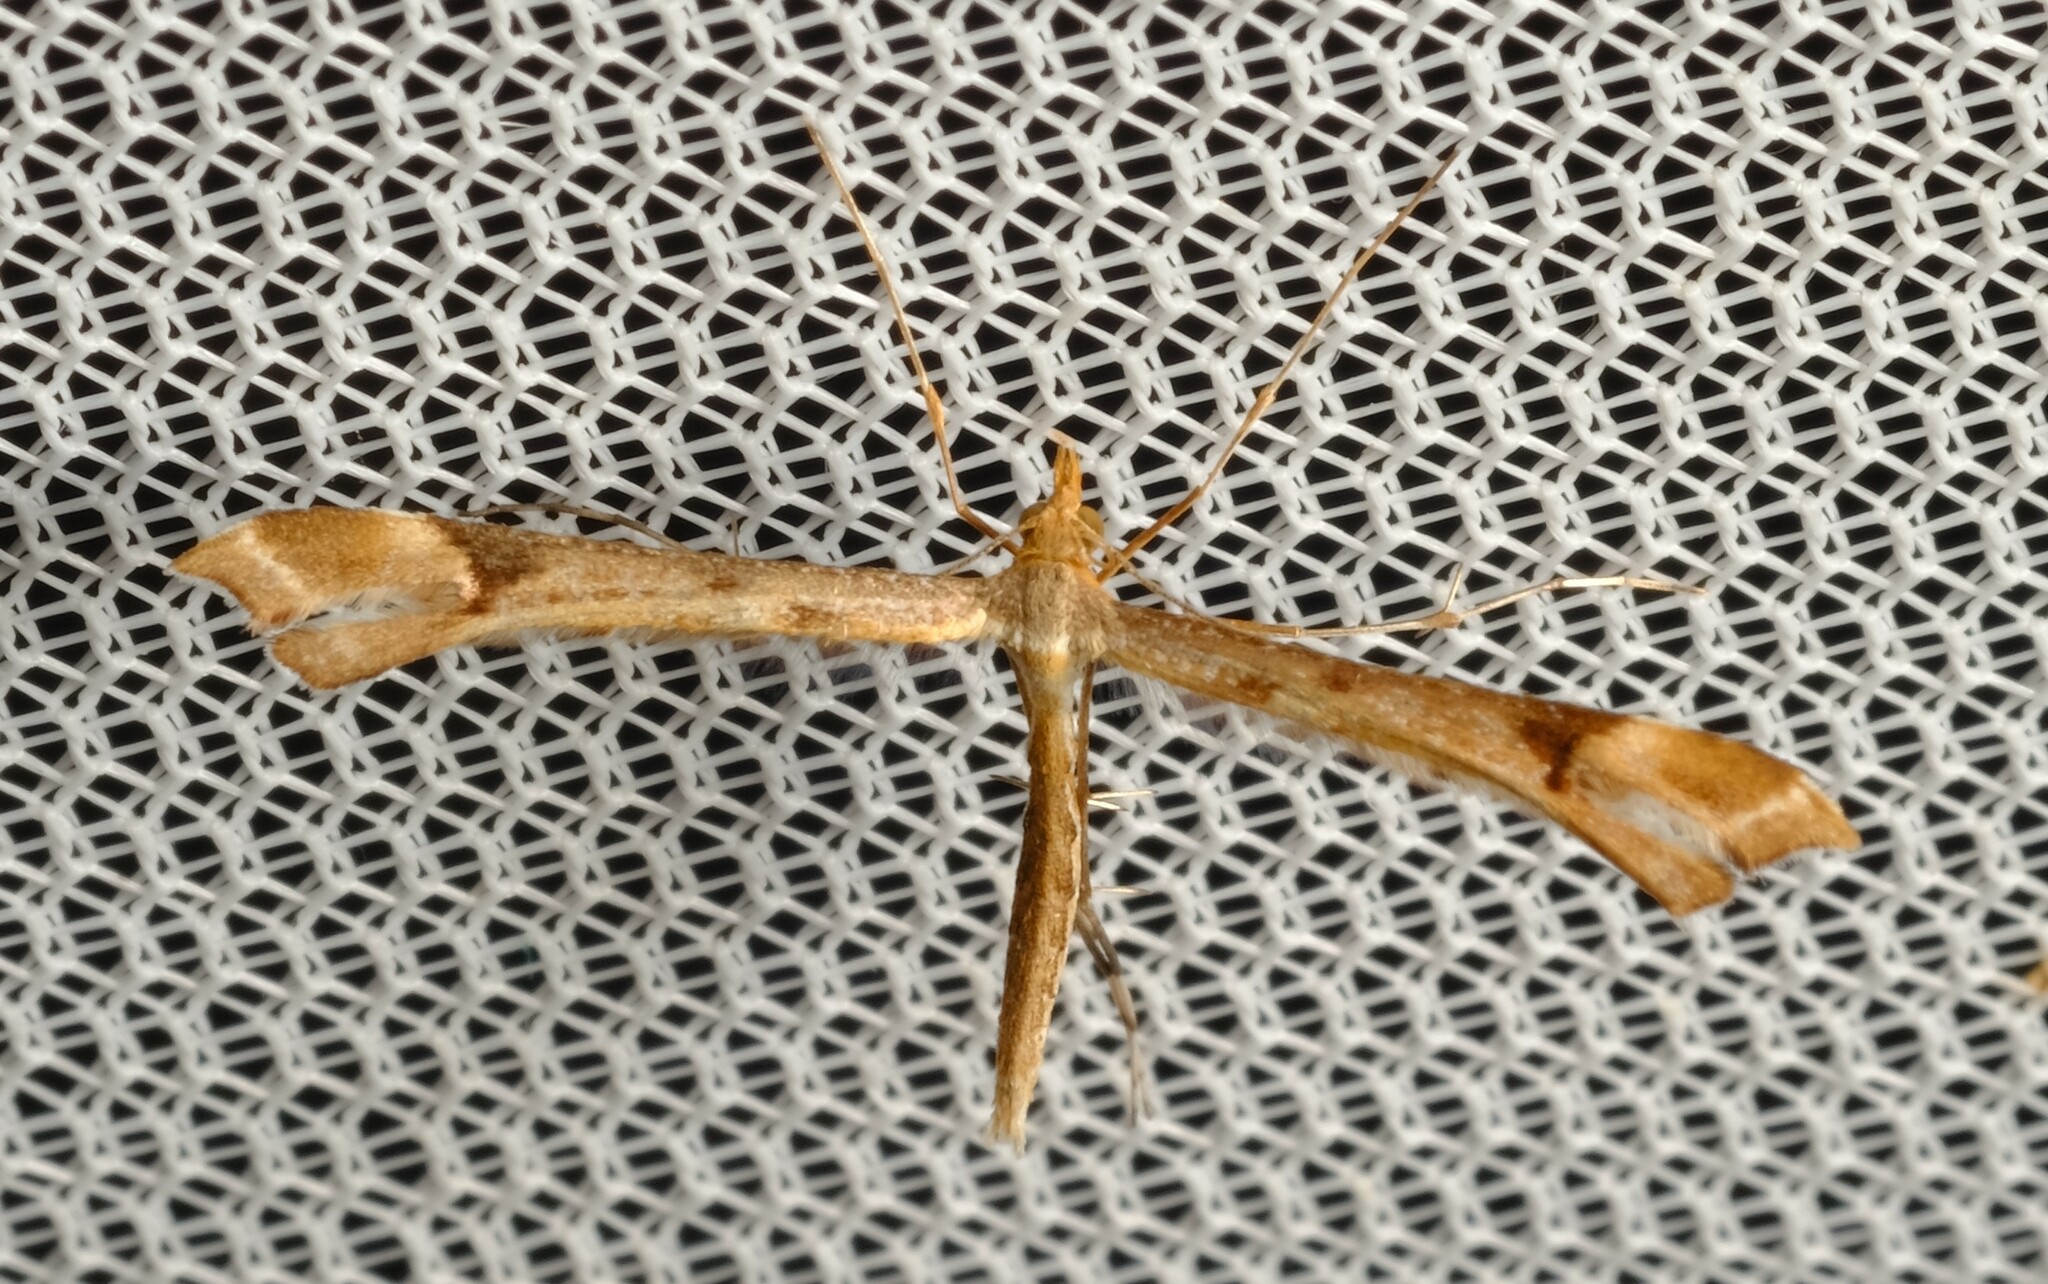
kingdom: Animalia
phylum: Arthropoda
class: Insecta
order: Lepidoptera
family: Pterophoridae
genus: Sinpunctiptilia
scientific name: Sinpunctiptilia emissalis
